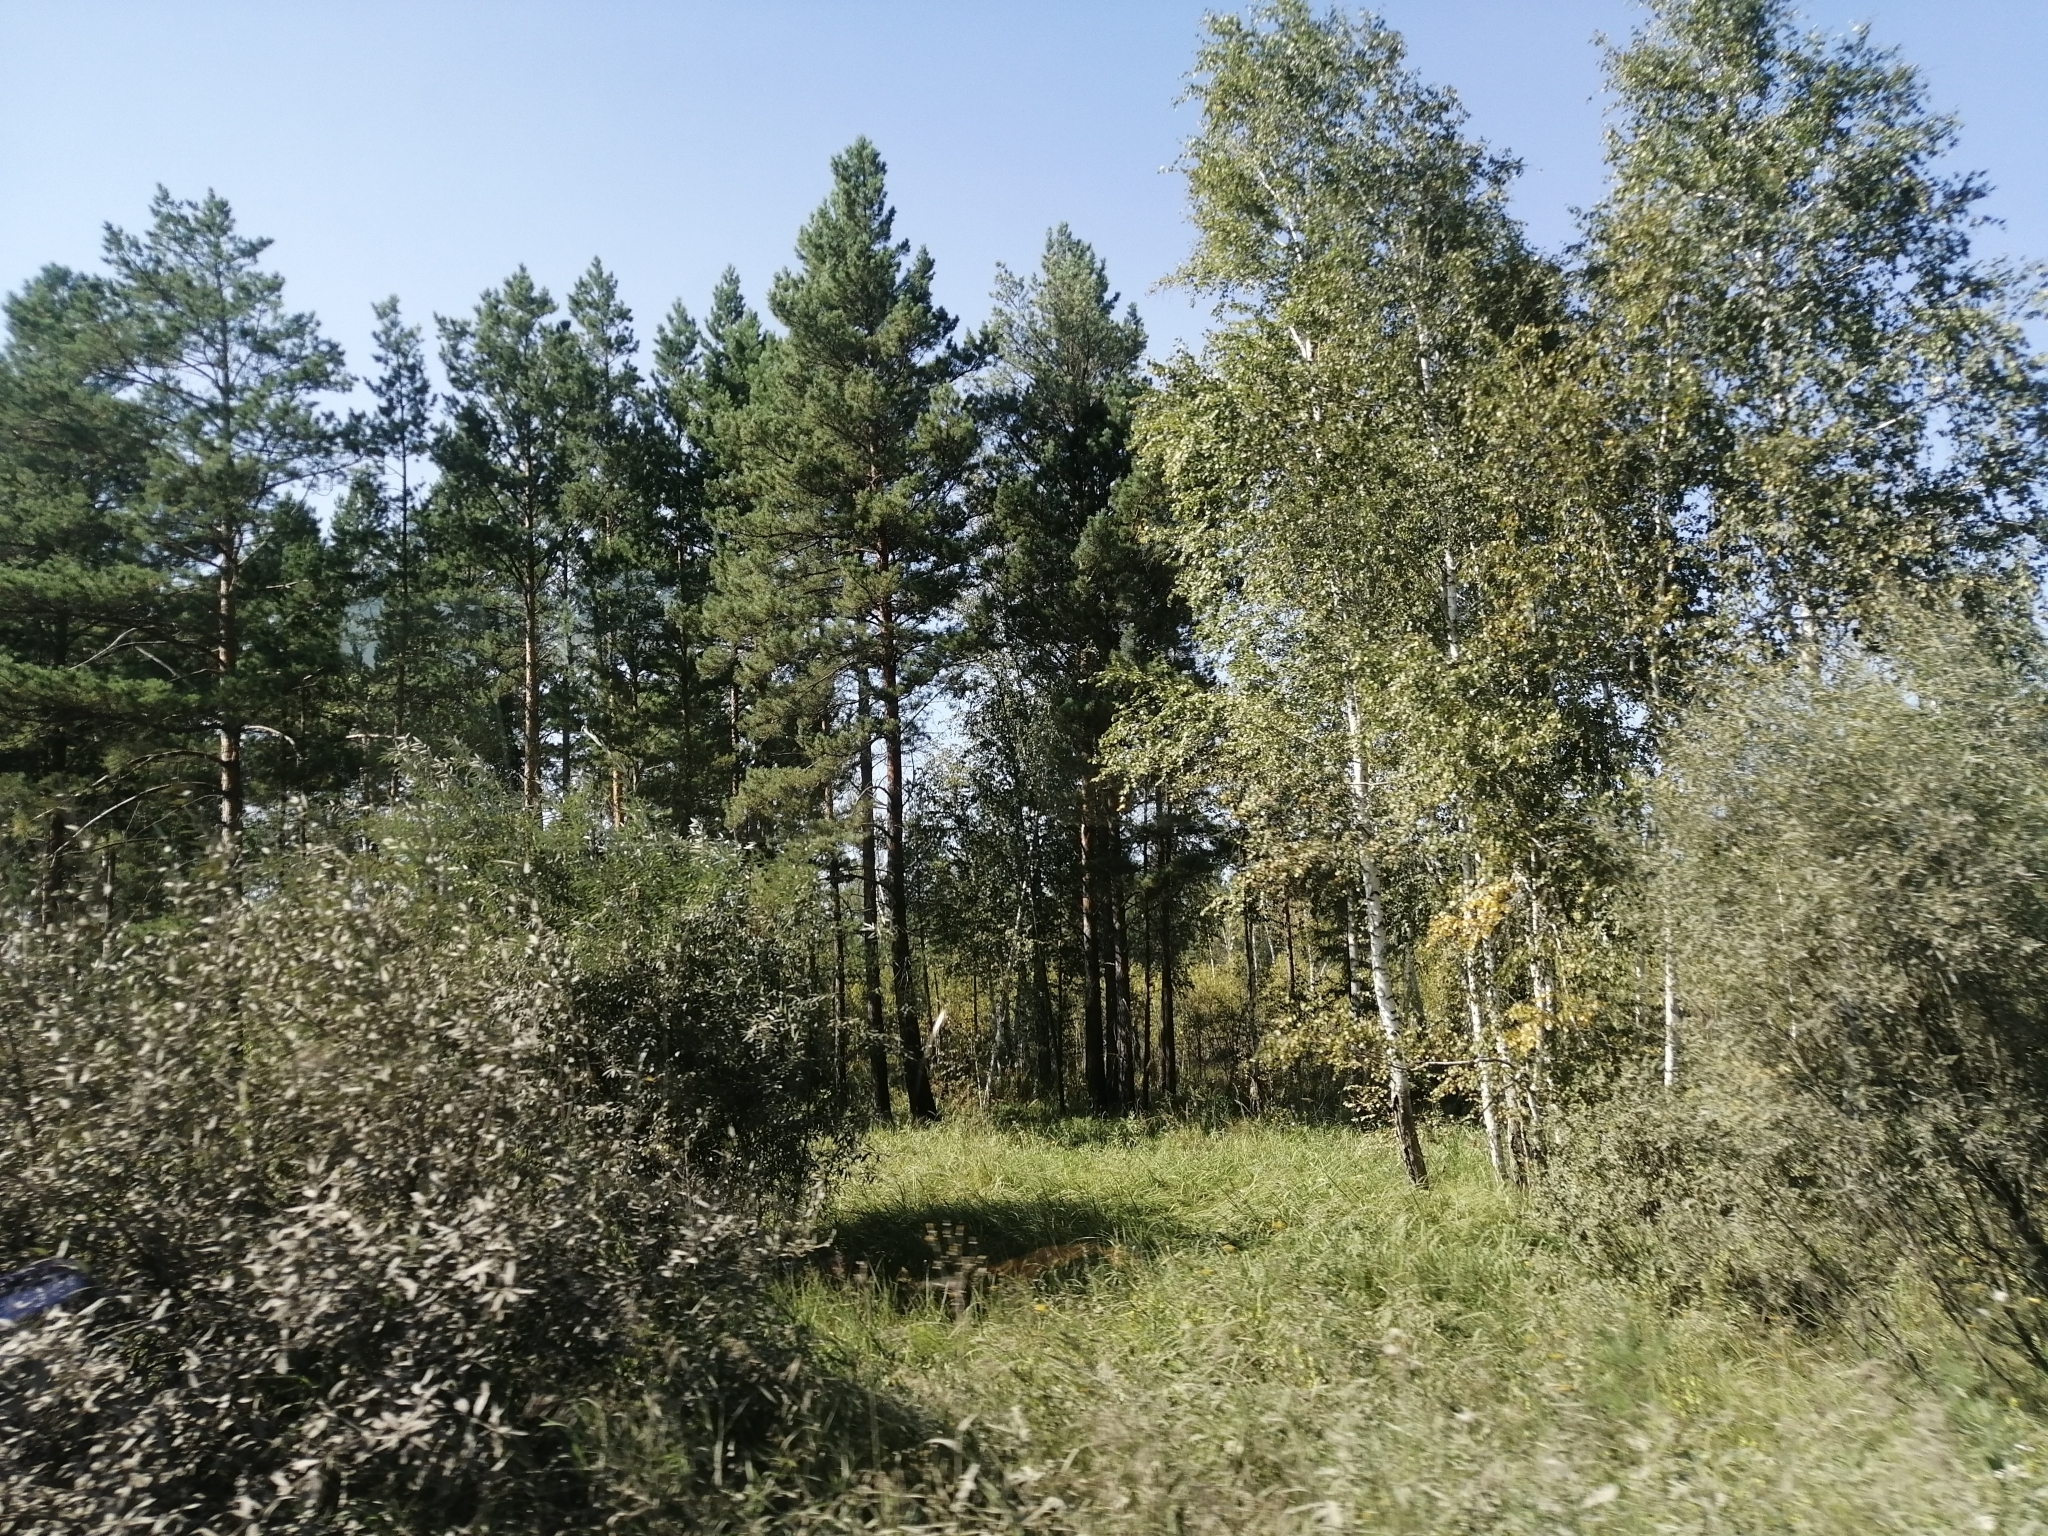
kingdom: Plantae
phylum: Tracheophyta
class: Pinopsida
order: Pinales
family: Pinaceae
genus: Pinus
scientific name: Pinus sylvestris
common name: Scots pine
